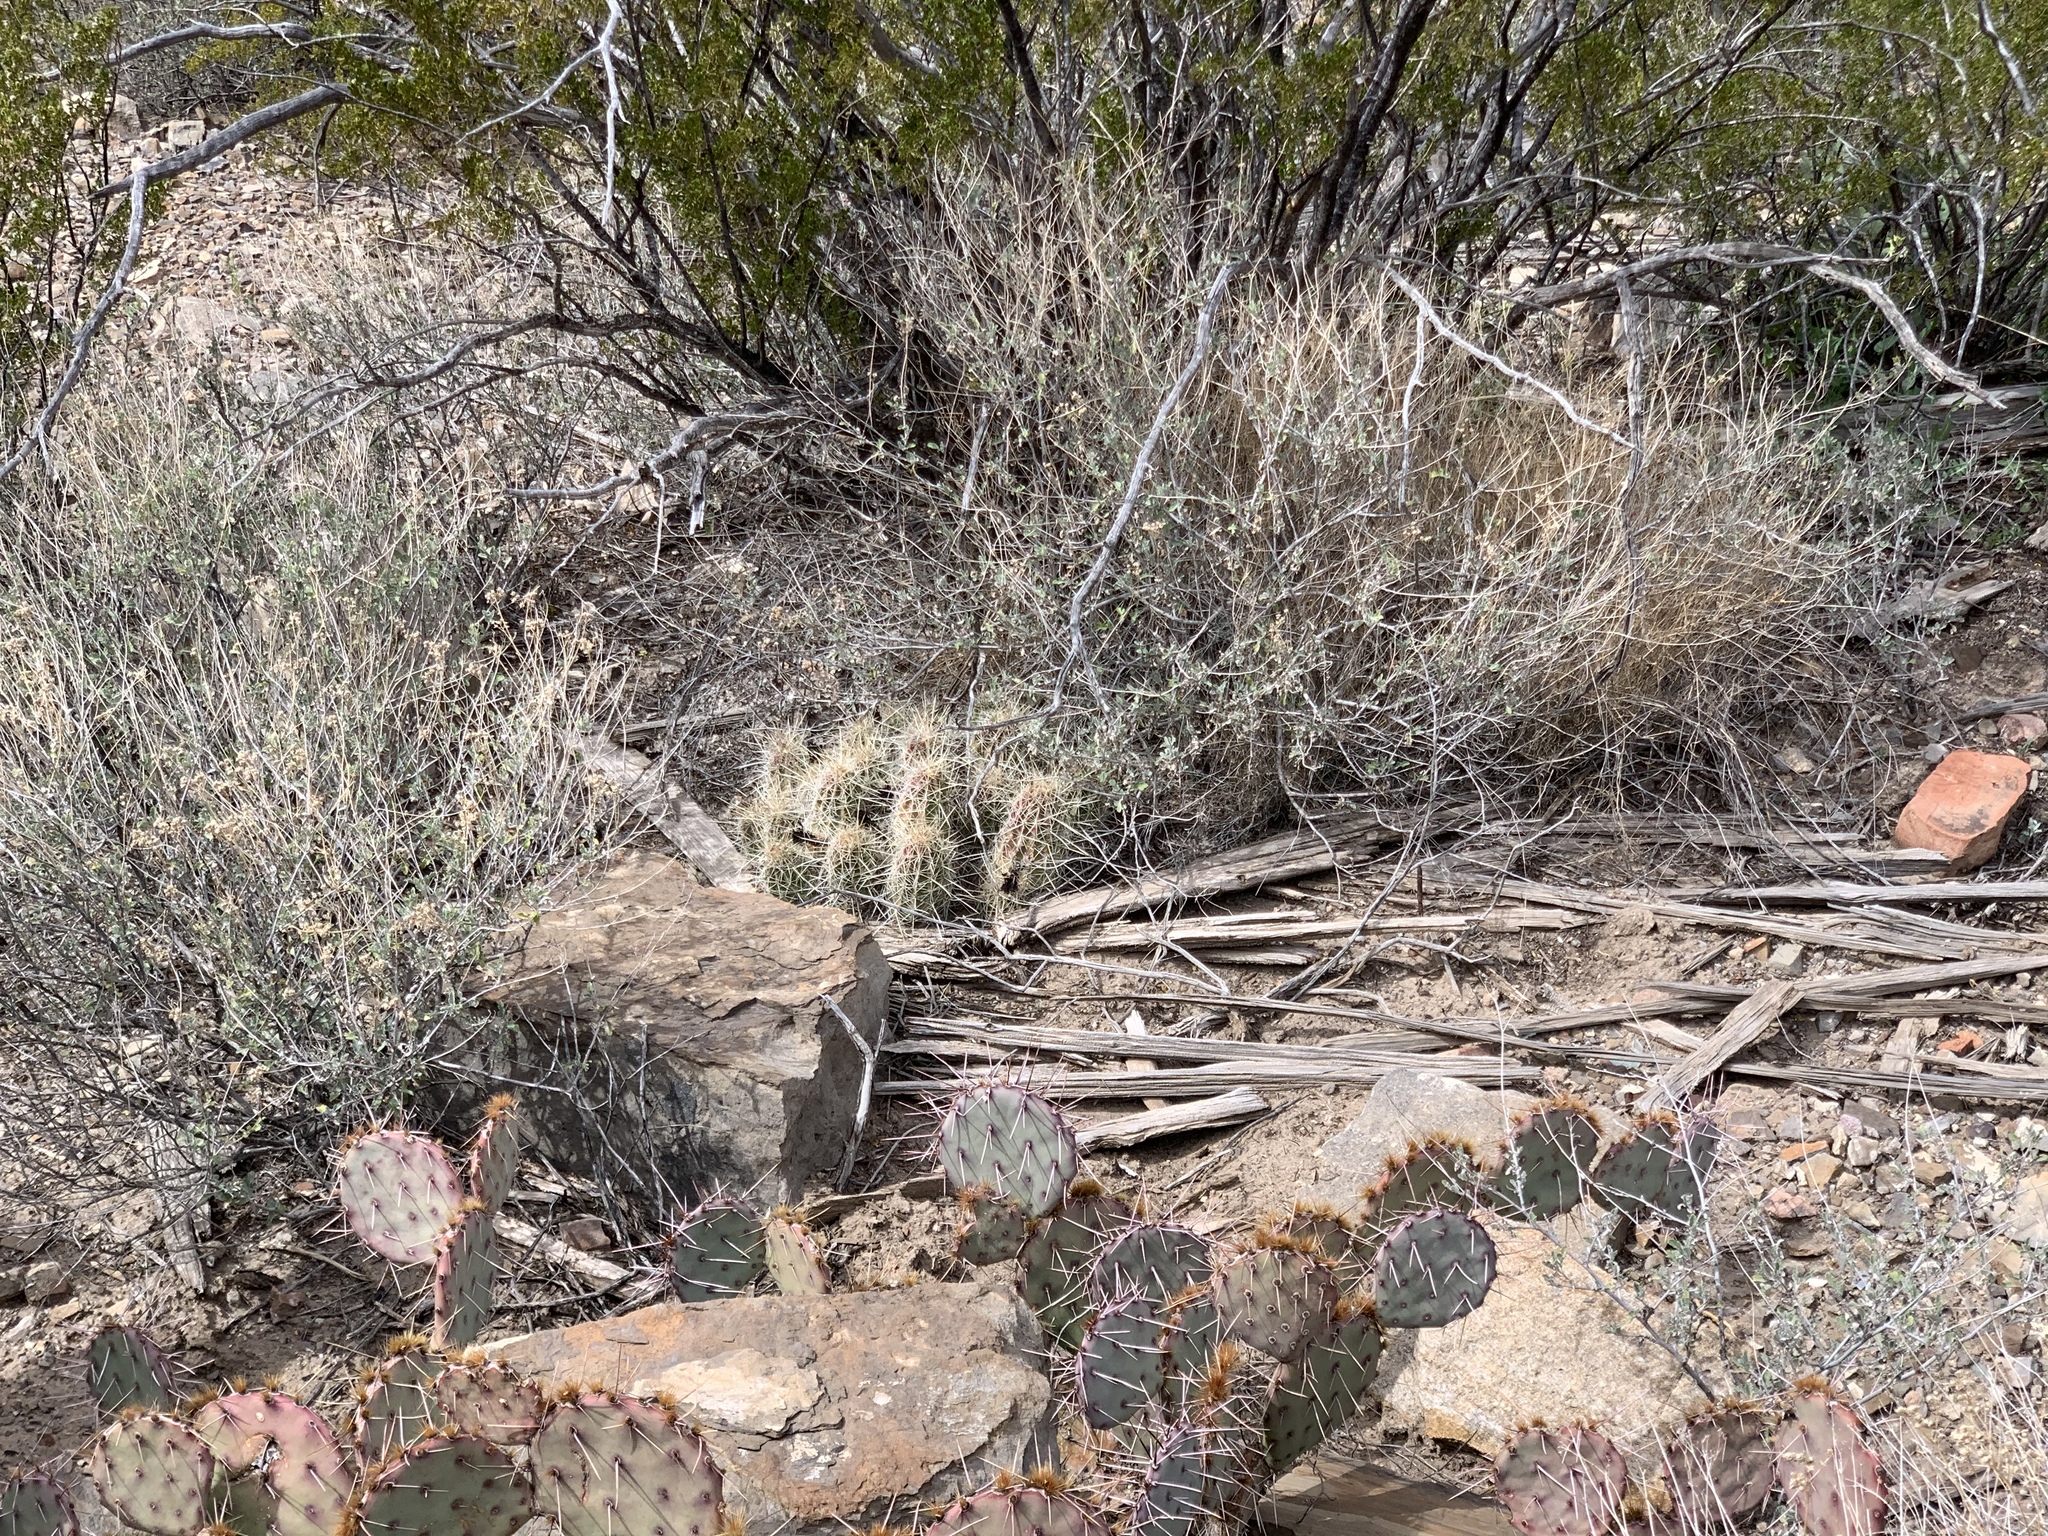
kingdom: Plantae
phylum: Tracheophyta
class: Magnoliopsida
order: Caryophyllales
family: Cactaceae
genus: Echinocereus
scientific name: Echinocereus stramineus
